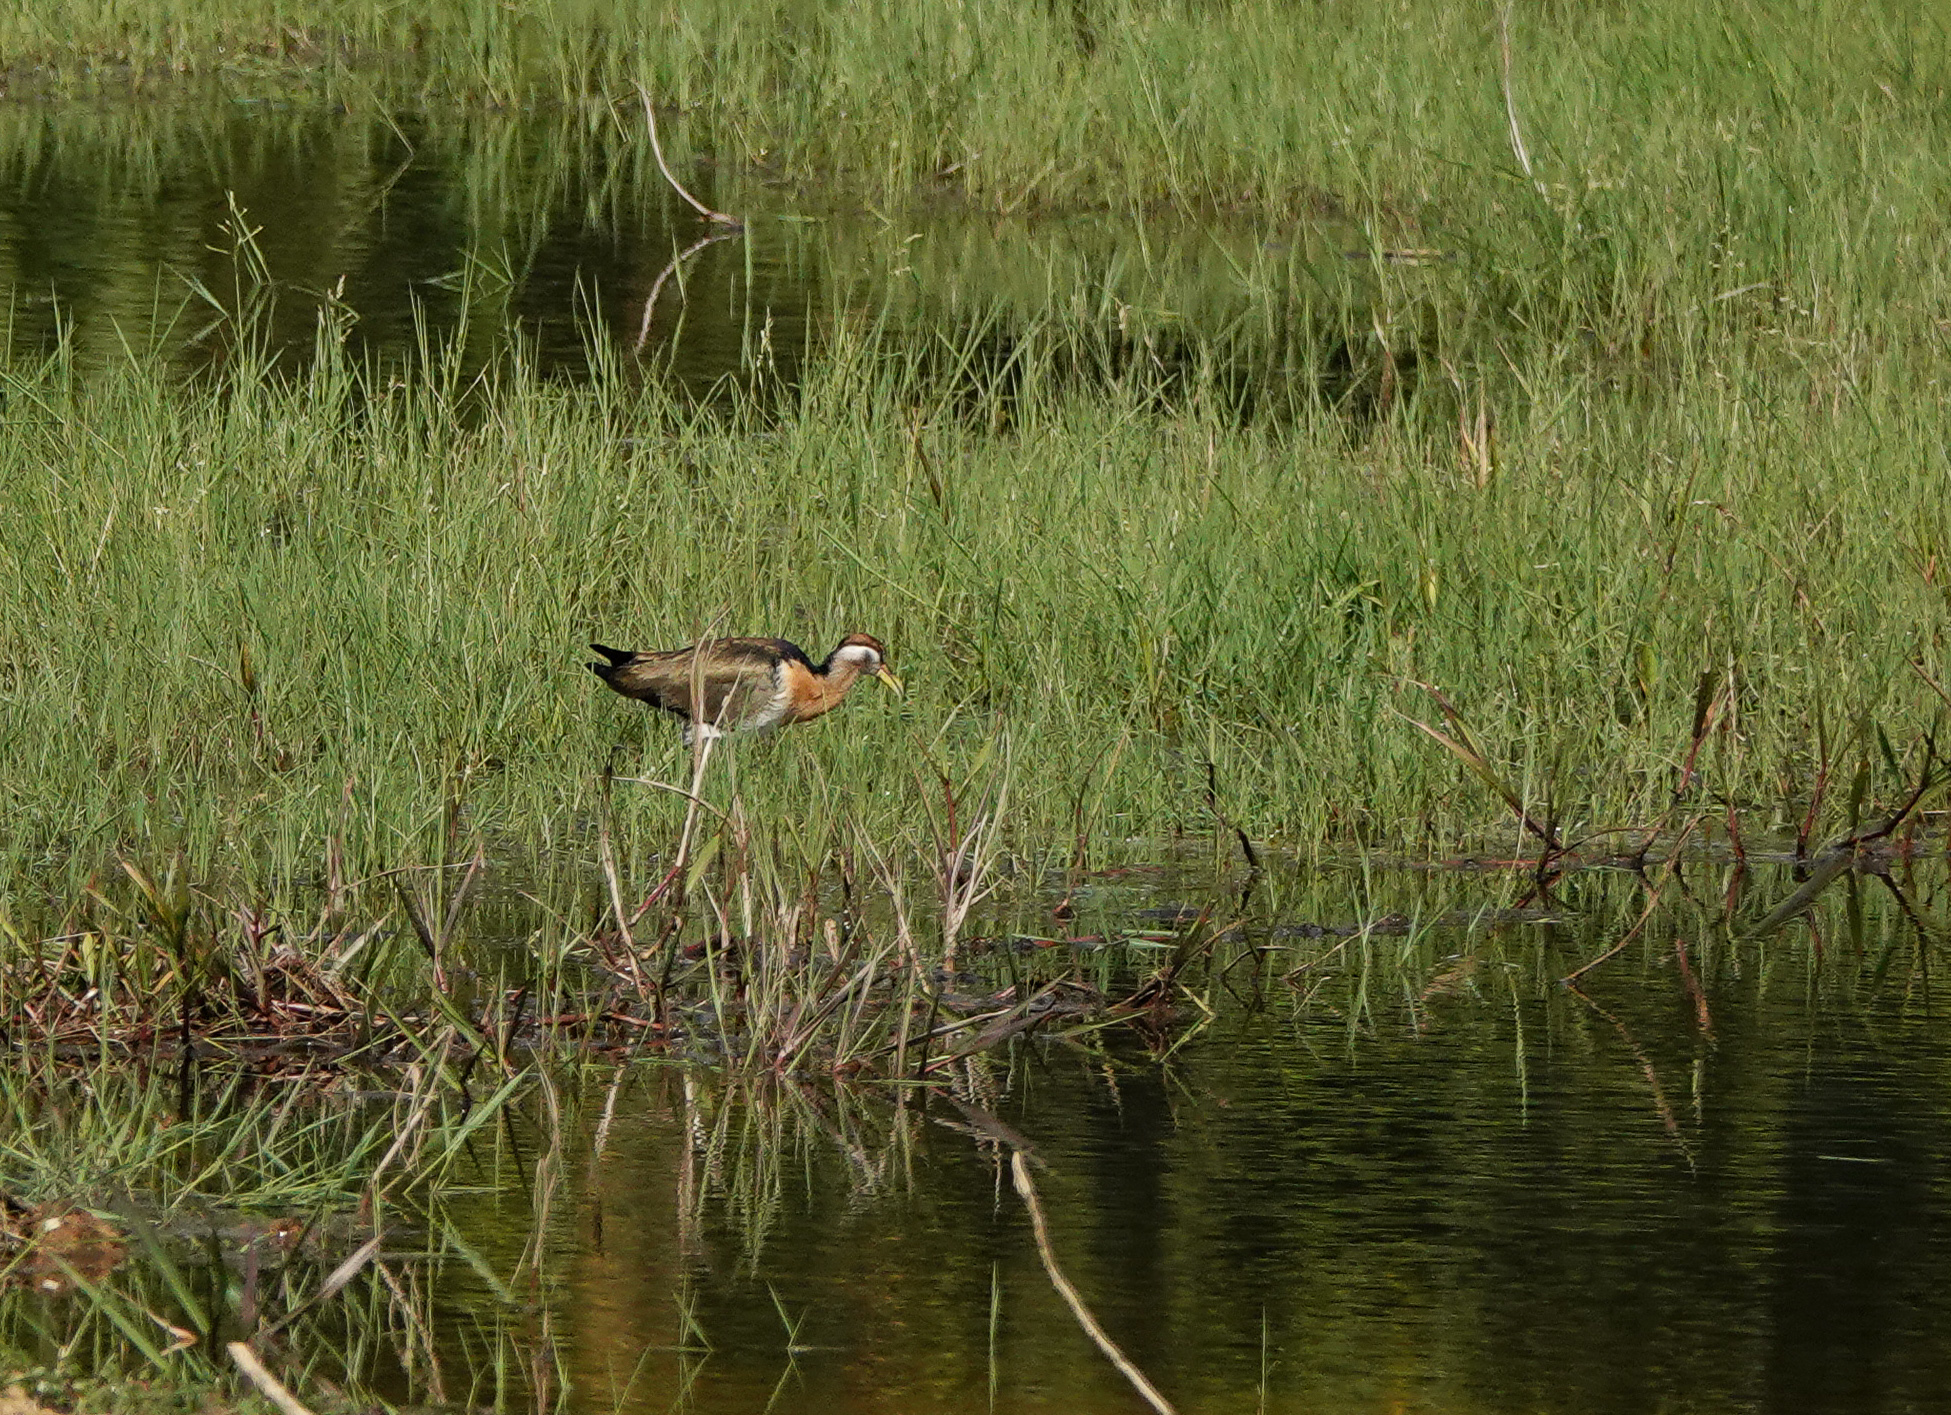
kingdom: Animalia
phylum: Chordata
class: Aves
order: Charadriiformes
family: Jacanidae
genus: Metopidius
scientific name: Metopidius indicus
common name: Bronze-winged jacana
